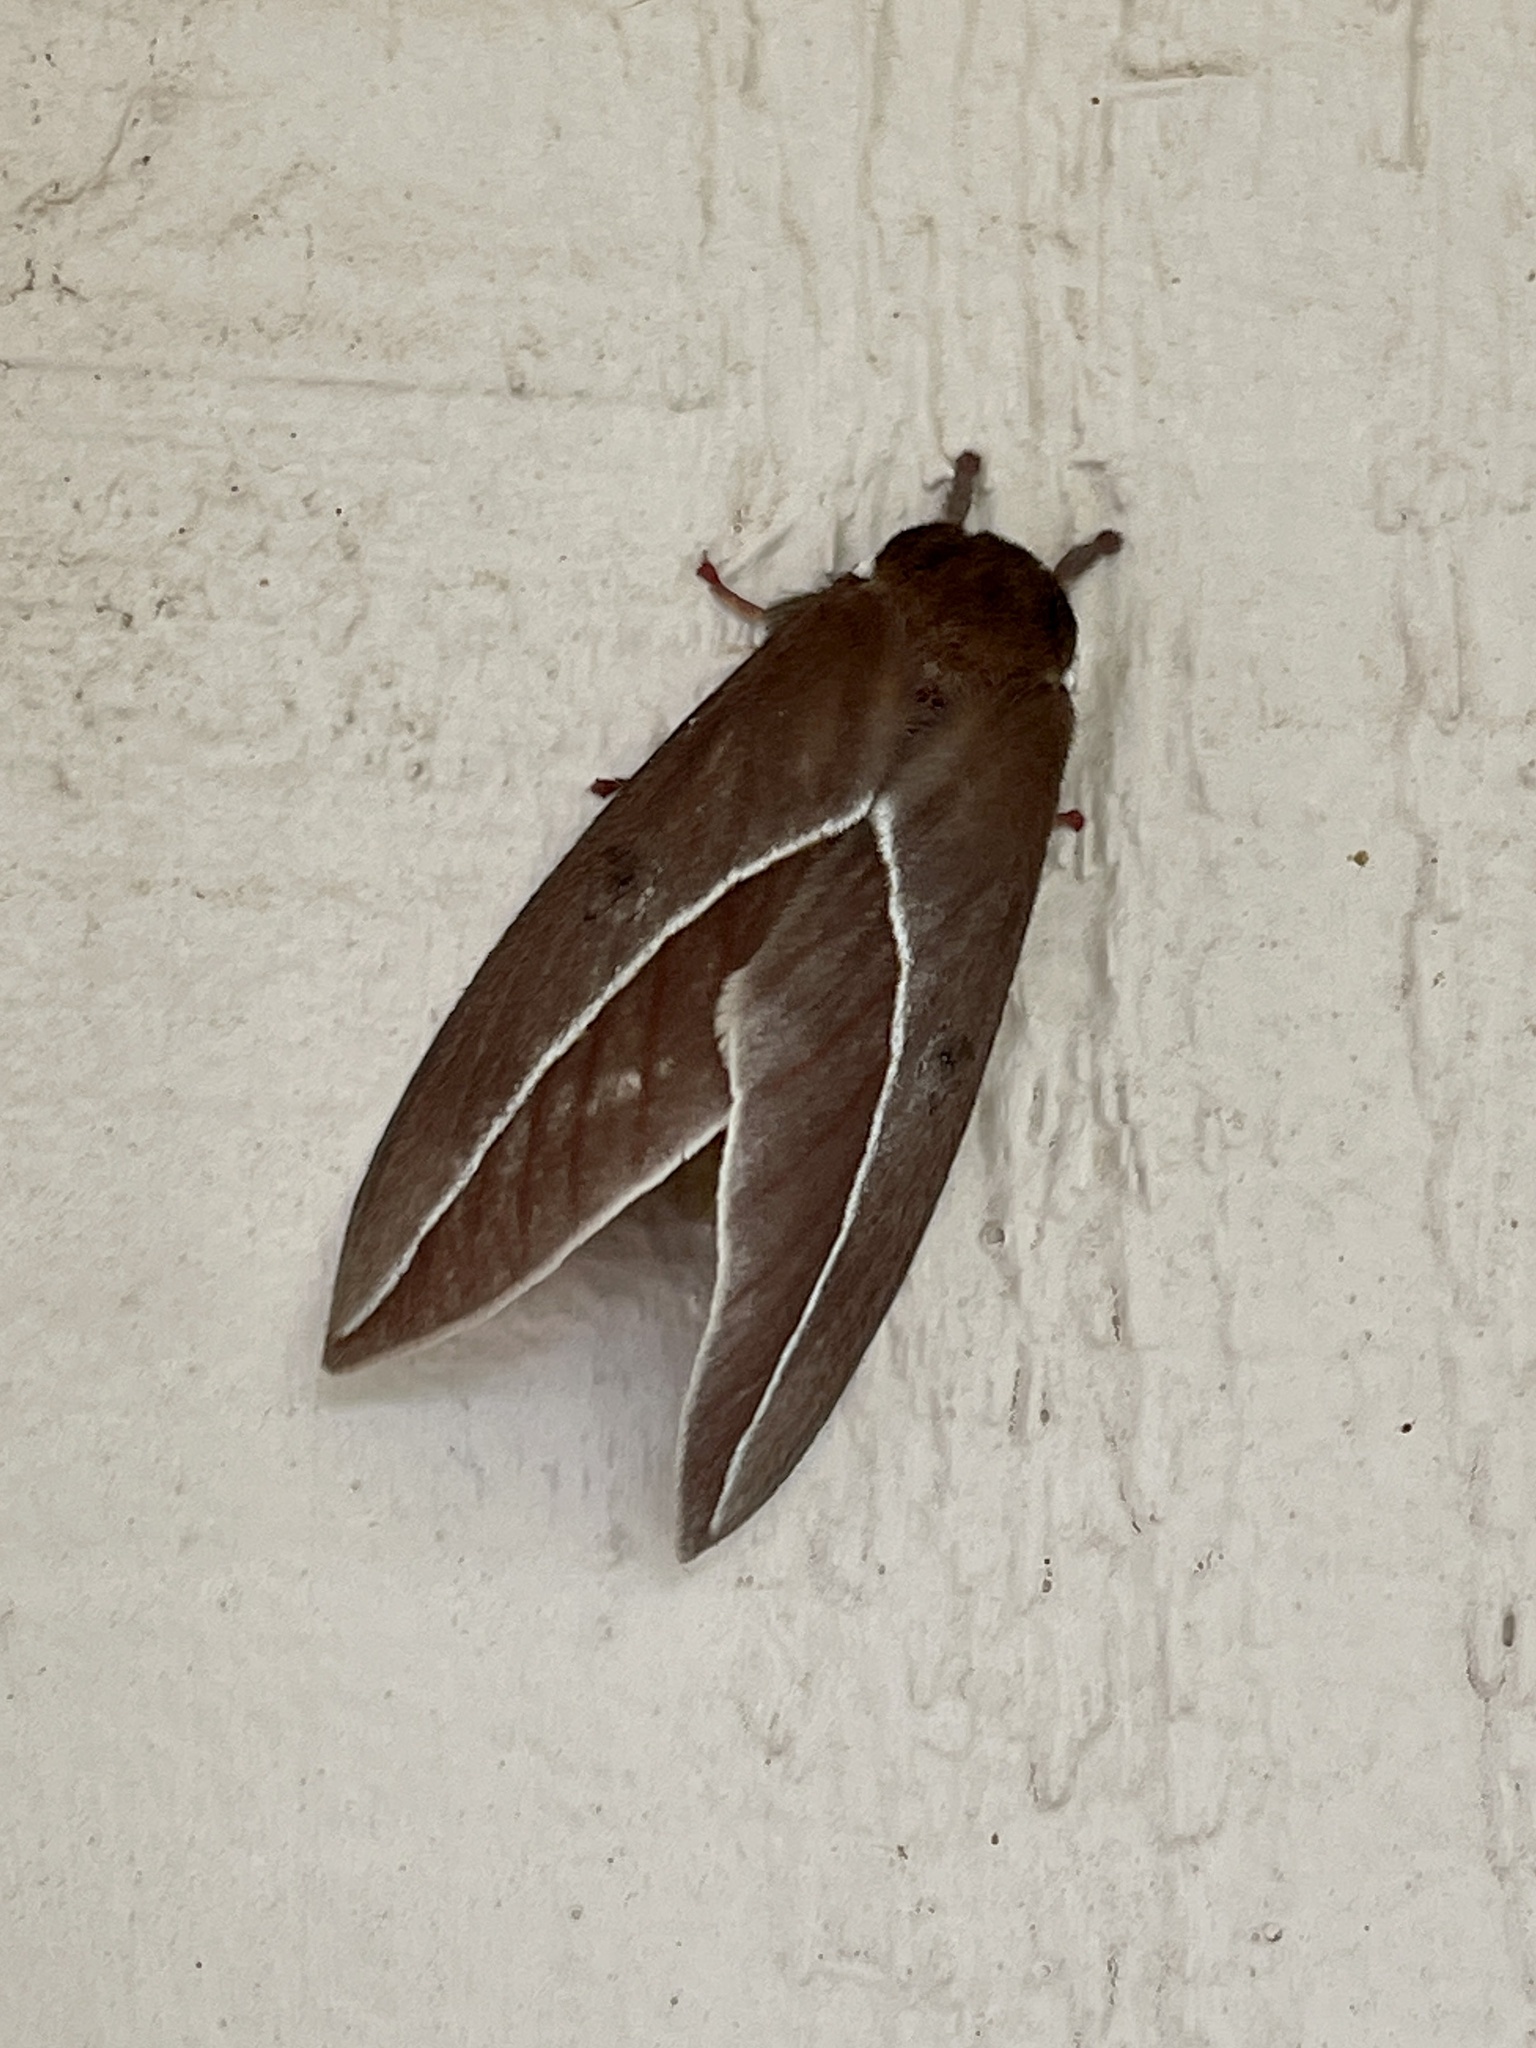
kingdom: Animalia
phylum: Arthropoda
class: Insecta
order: Lepidoptera
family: Saturniidae
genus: Automeris
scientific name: Automeris zephyria
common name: Zephyr eyed silkmoth
